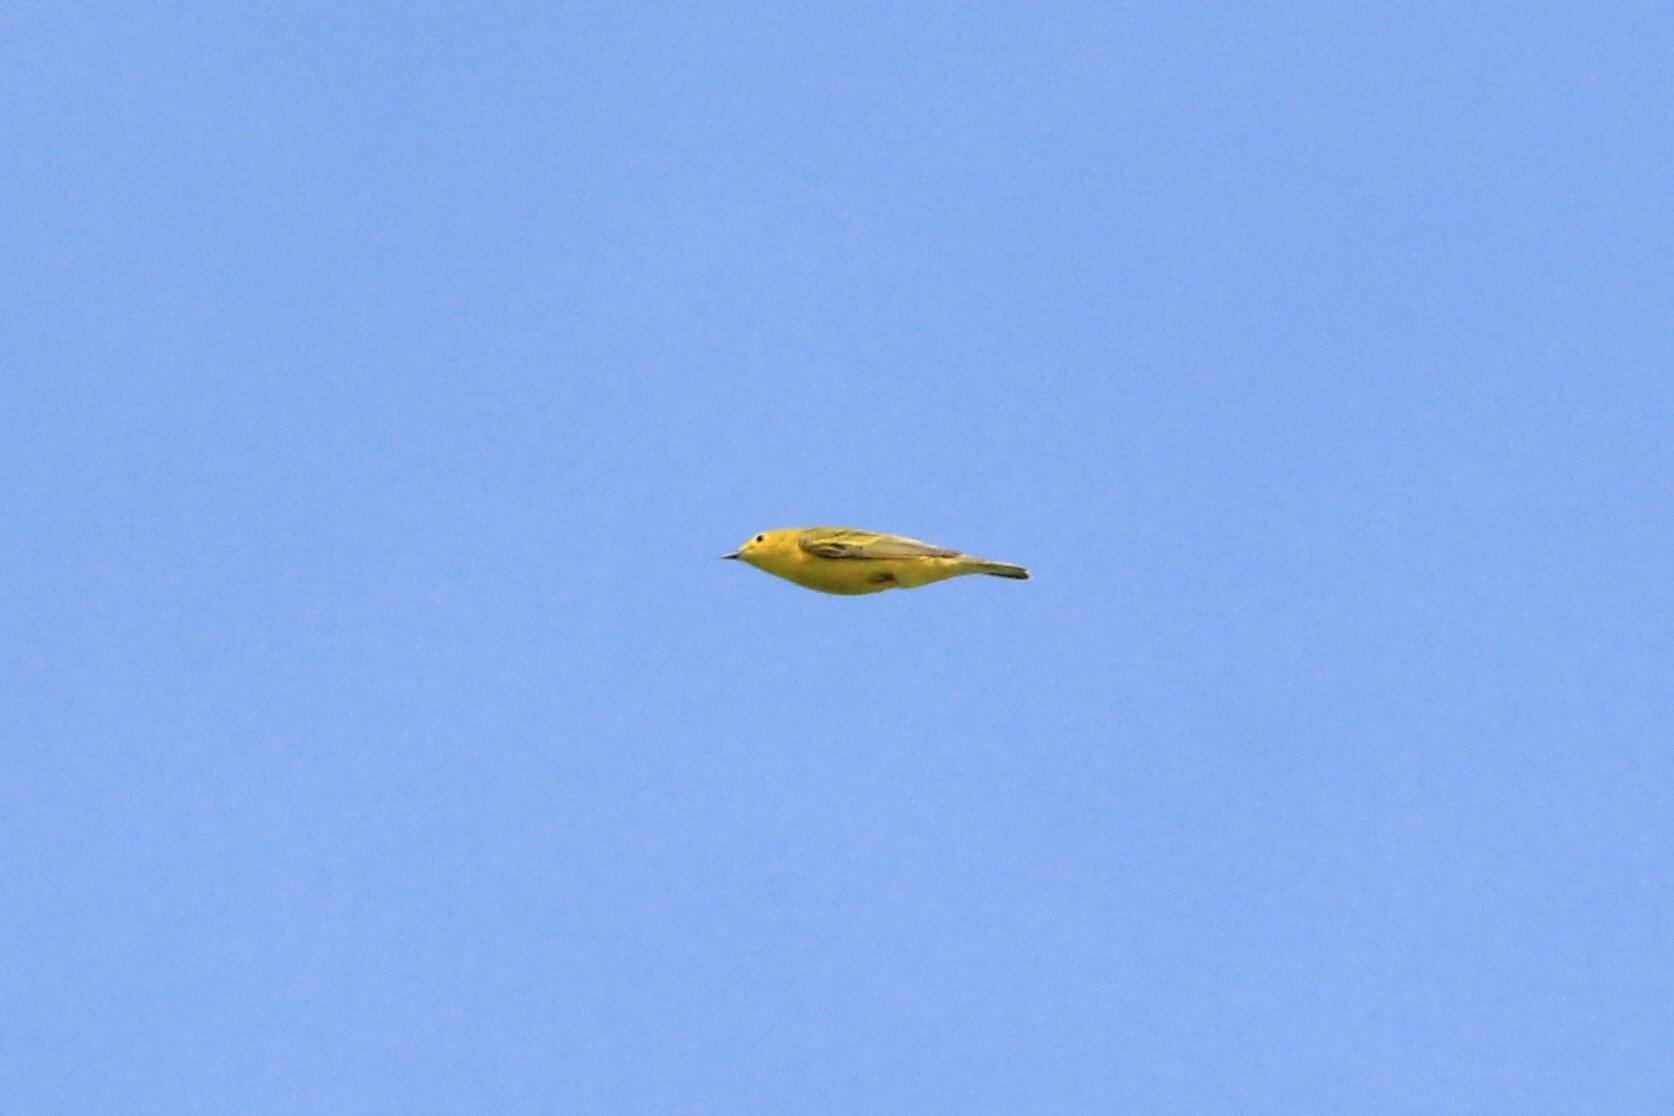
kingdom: Animalia
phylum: Chordata
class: Aves
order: Passeriformes
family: Parulidae
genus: Setophaga
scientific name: Setophaga petechia
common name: Yellow warbler
